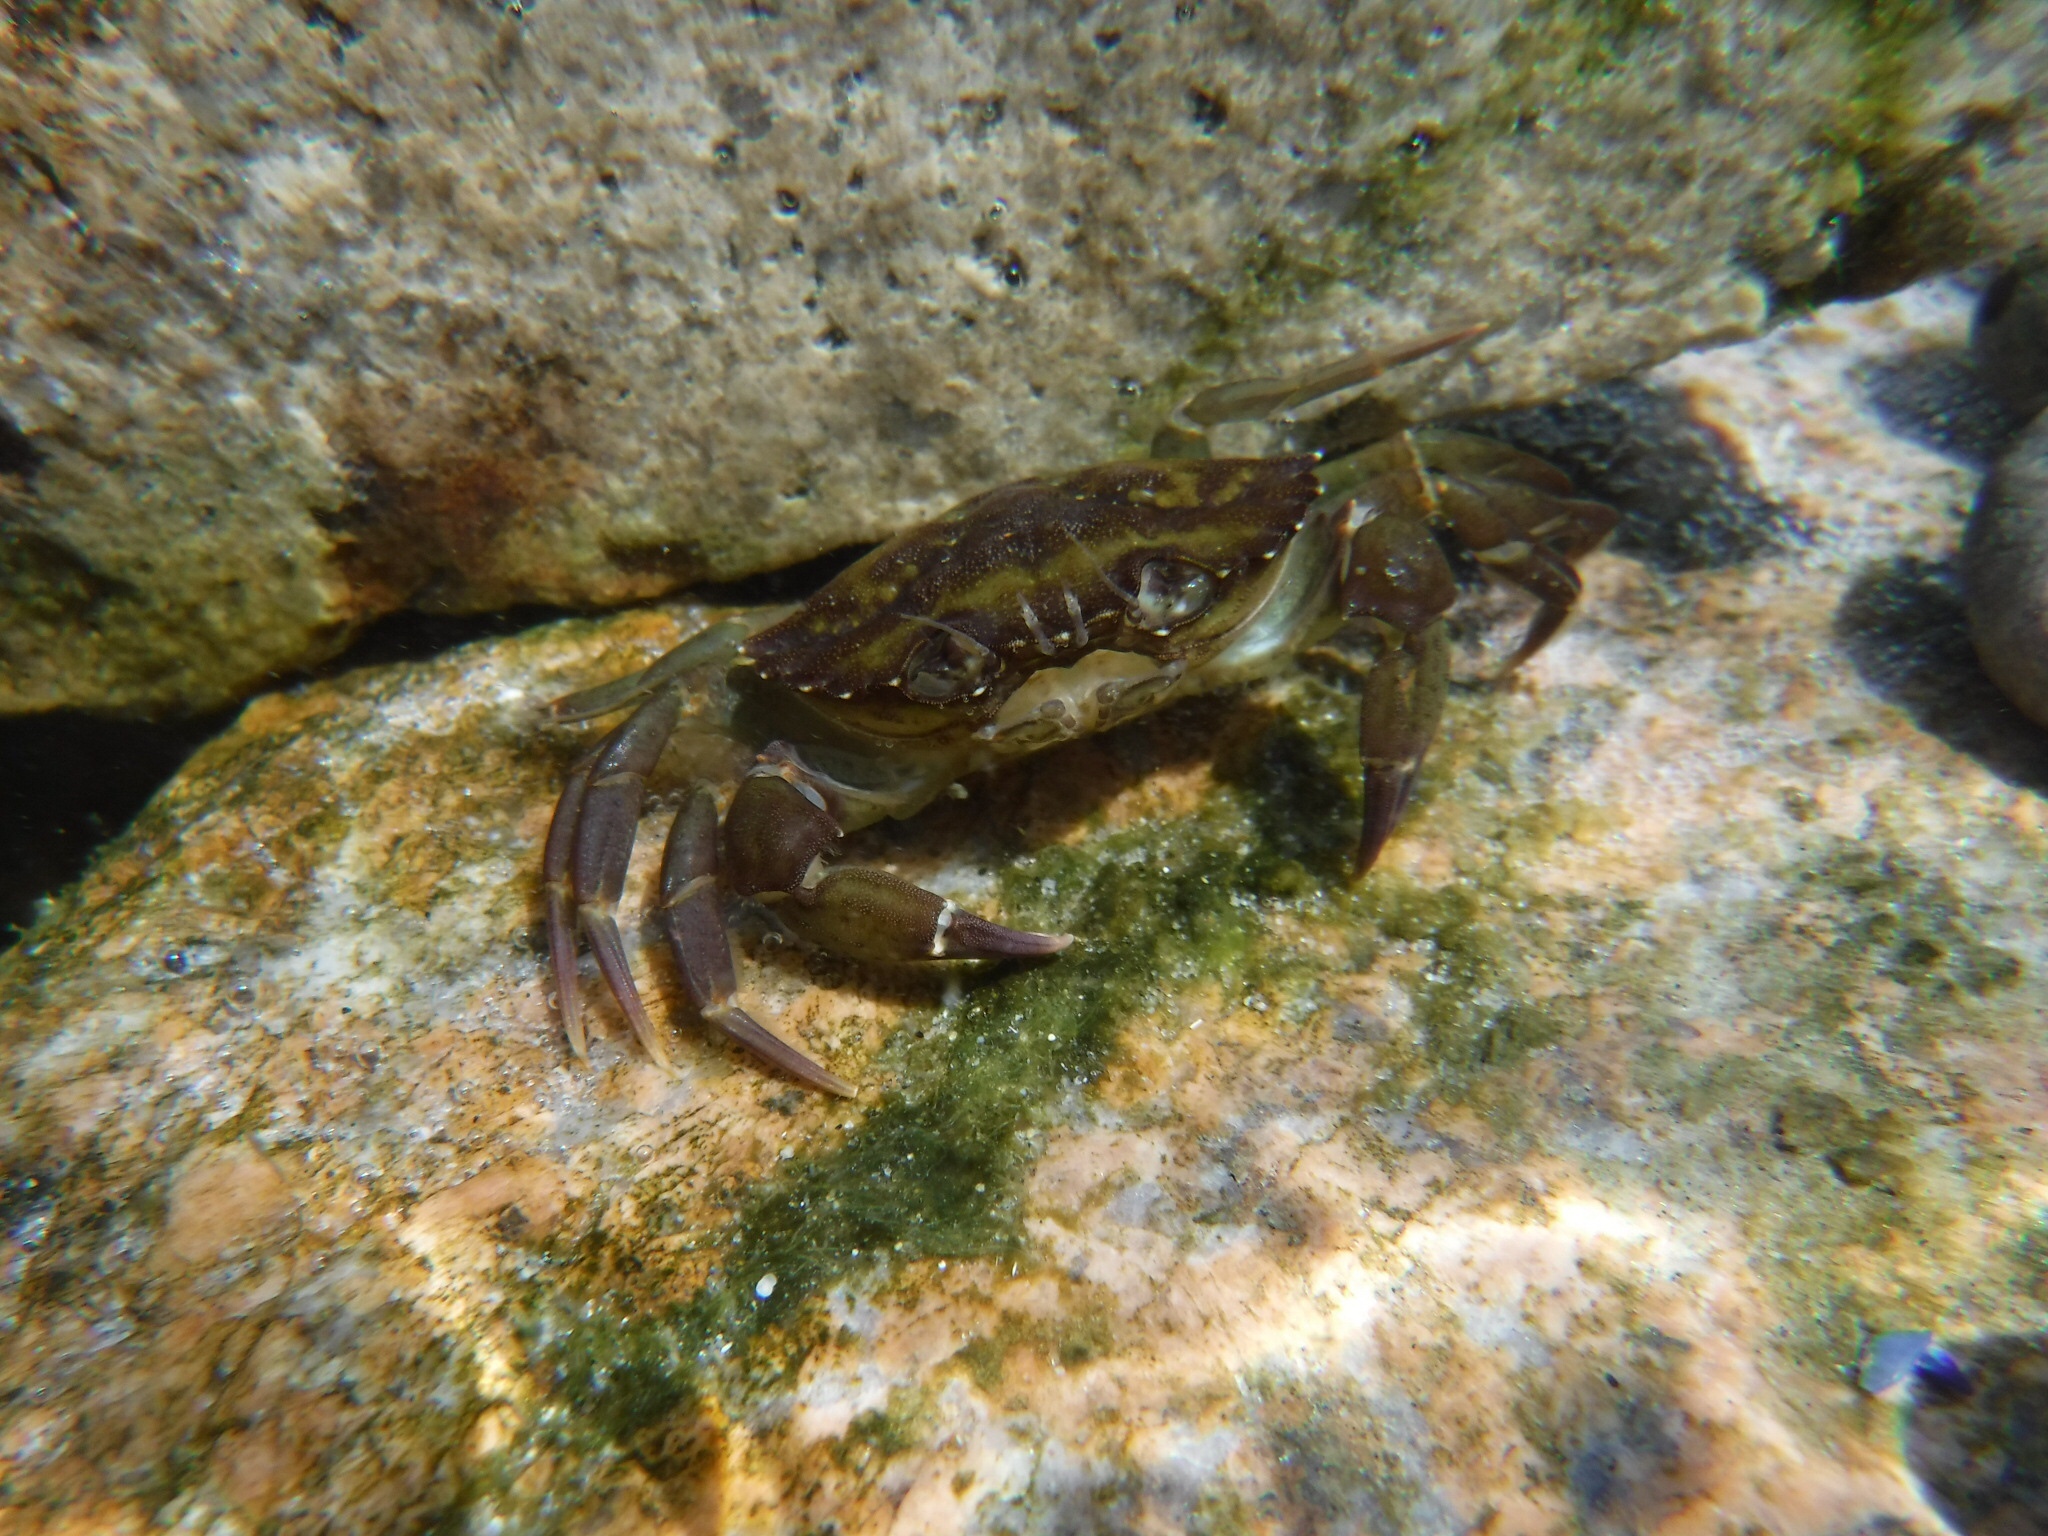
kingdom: Animalia
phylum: Arthropoda
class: Malacostraca
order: Decapoda
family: Carcinidae
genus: Carcinus
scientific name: Carcinus maenas
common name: European green crab
